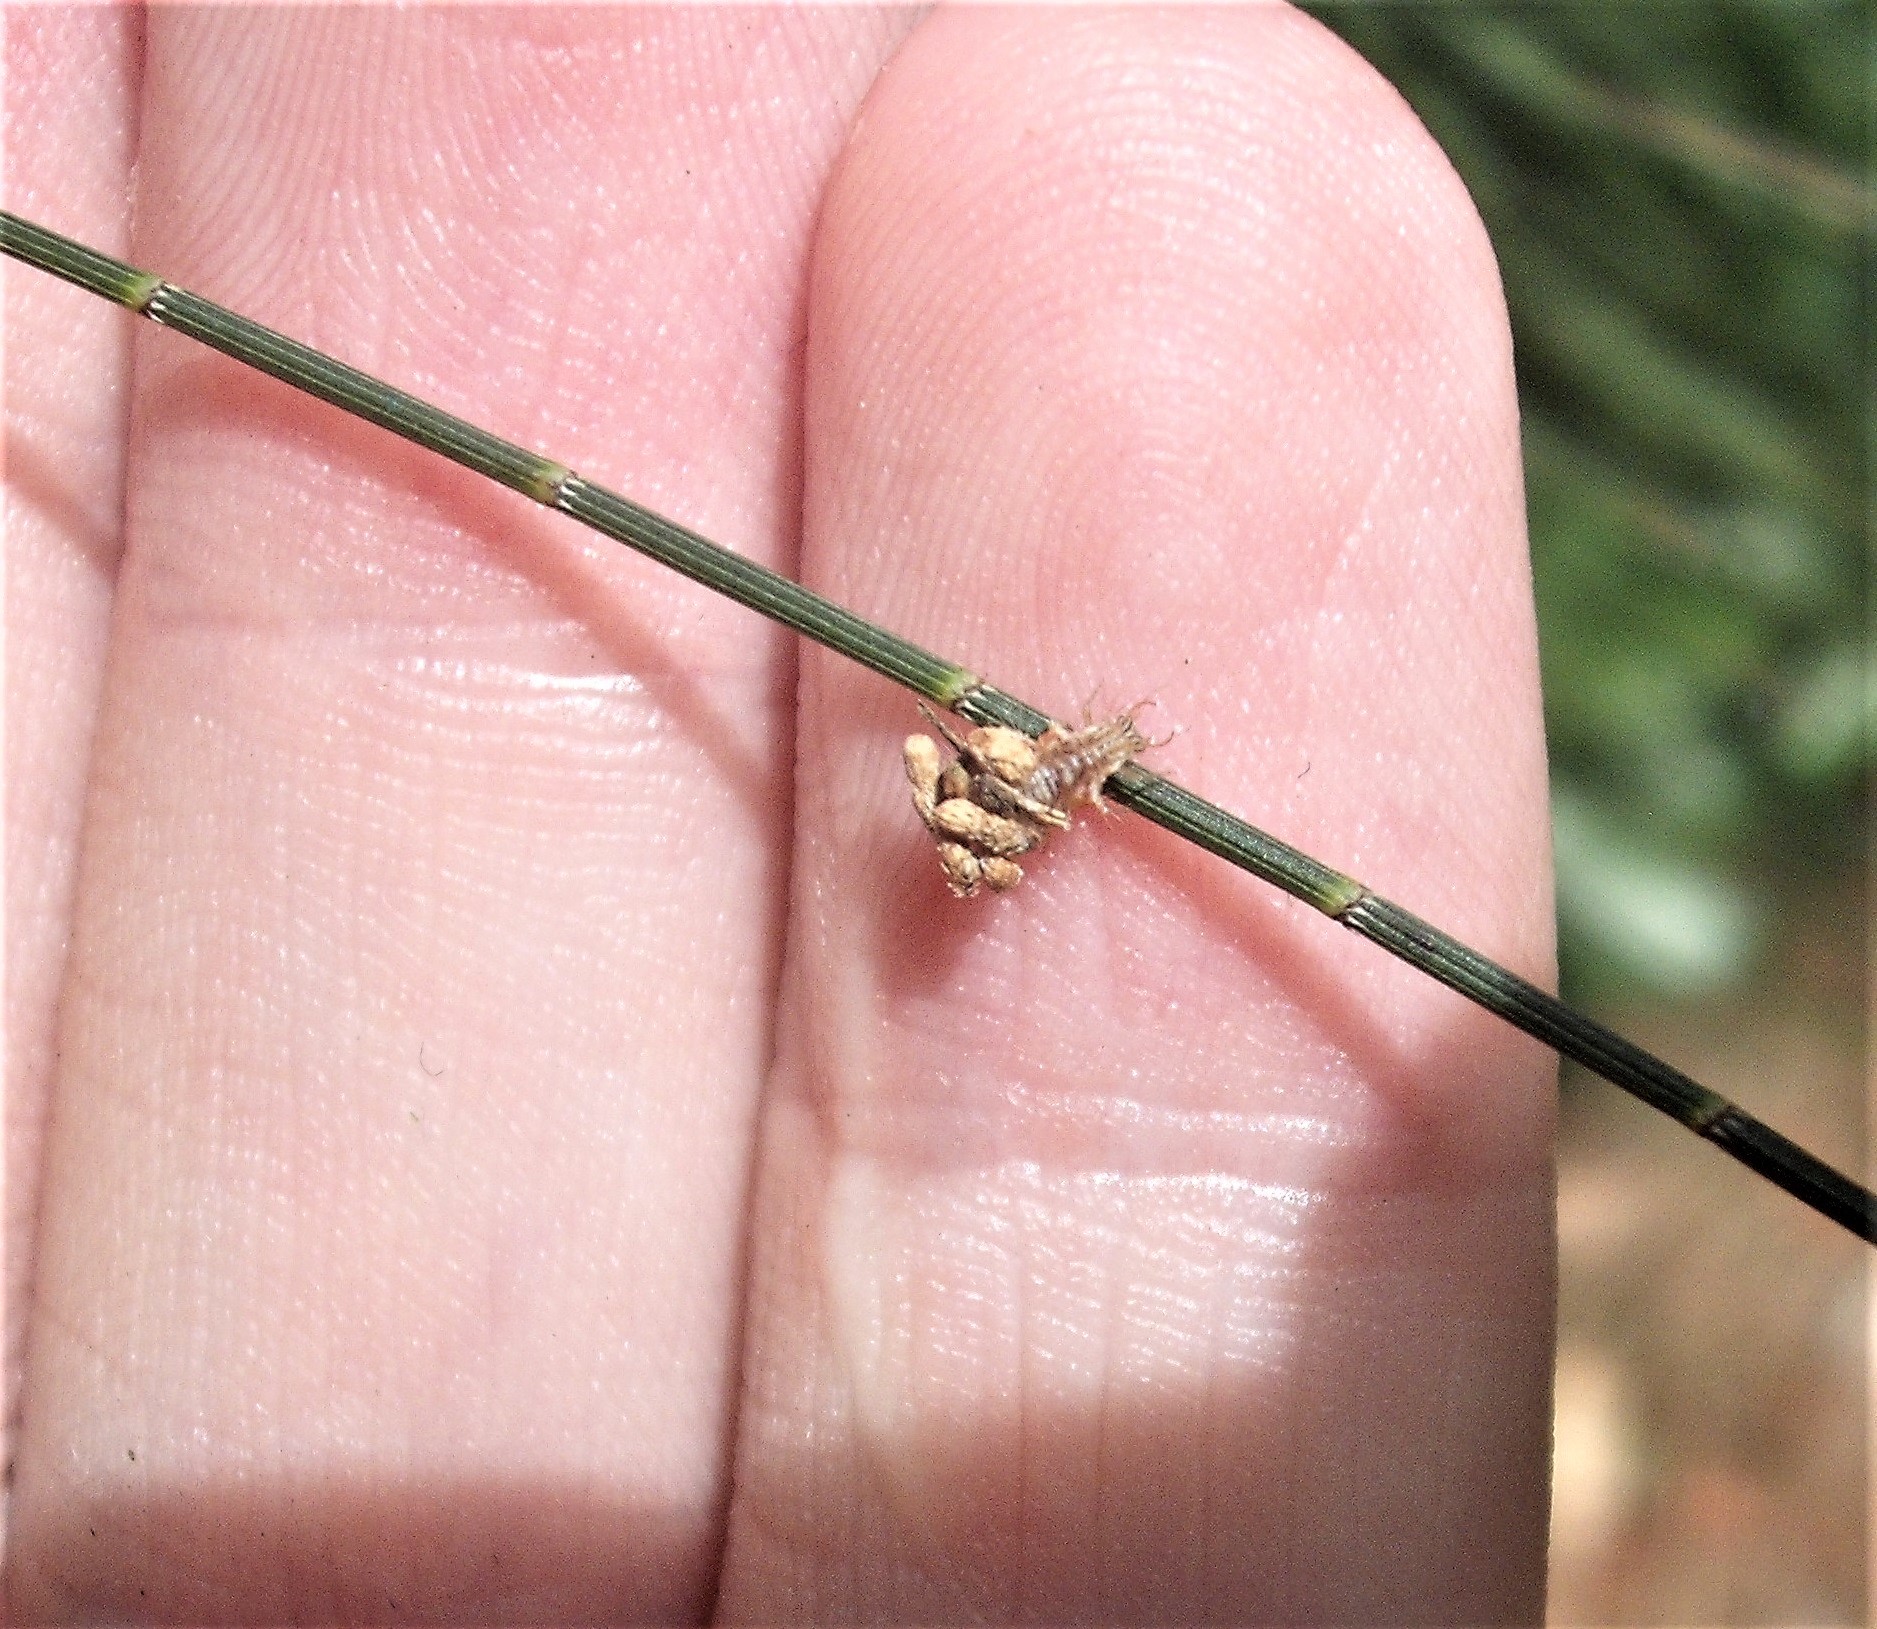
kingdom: Animalia
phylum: Arthropoda
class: Insecta
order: Neuroptera
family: Chrysopidae
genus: Mallada
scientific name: Mallada basalis
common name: Green lacewing
